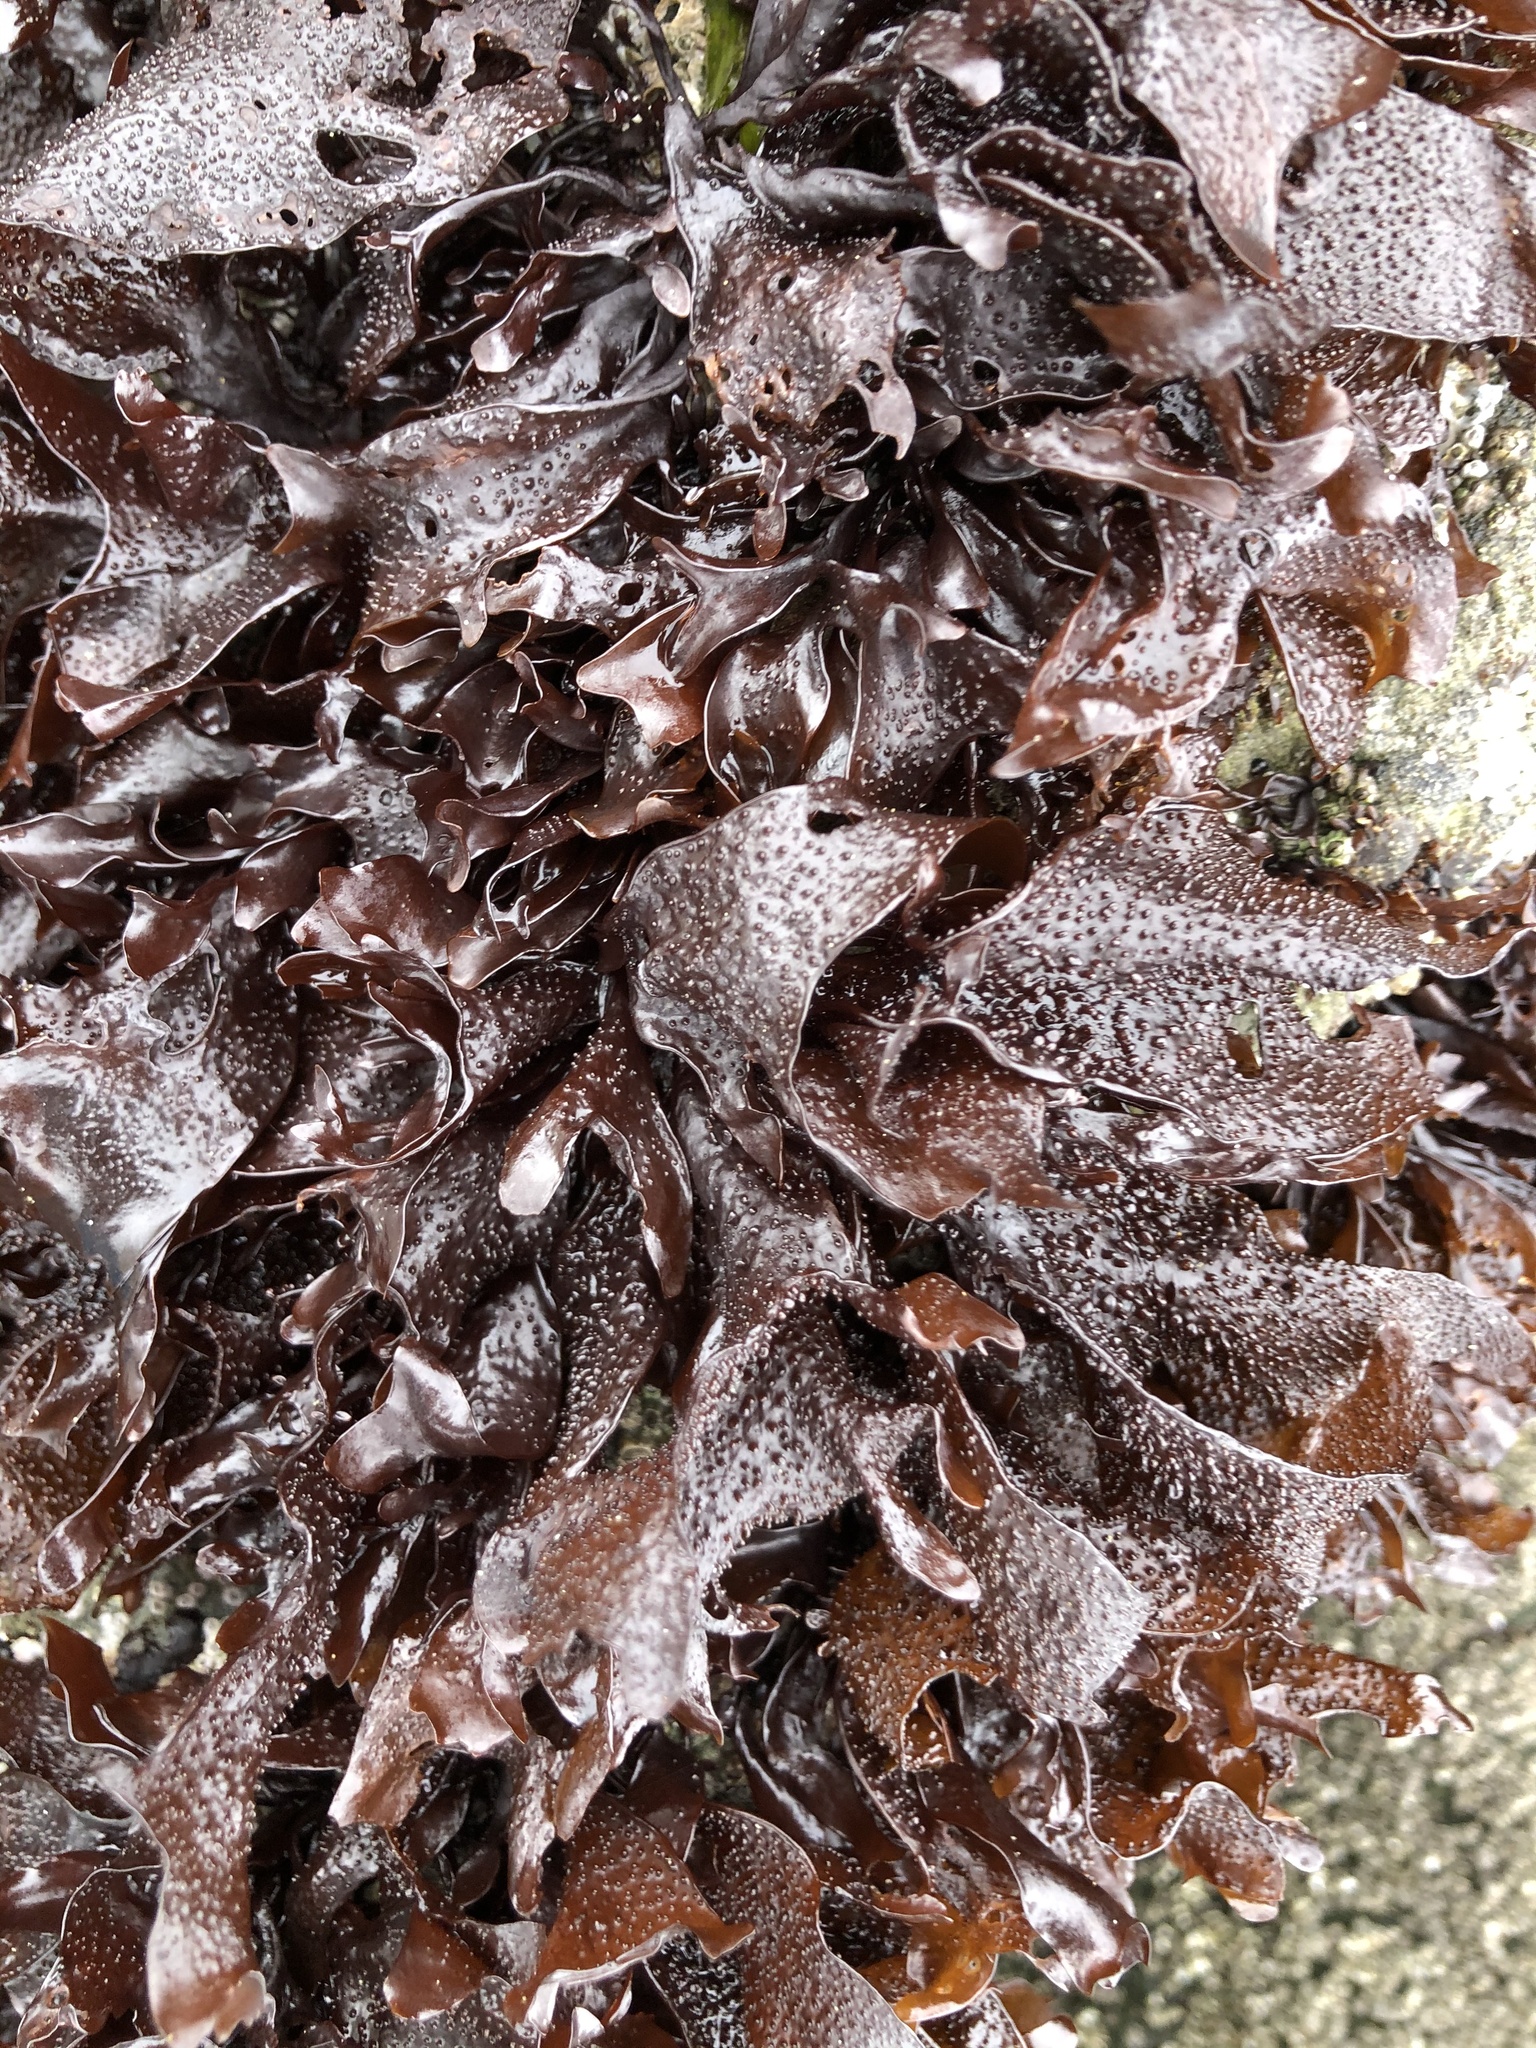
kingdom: Plantae
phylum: Rhodophyta
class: Florideophyceae
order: Gigartinales
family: Phyllophoraceae
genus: Mastocarpus
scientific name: Mastocarpus papillatus
